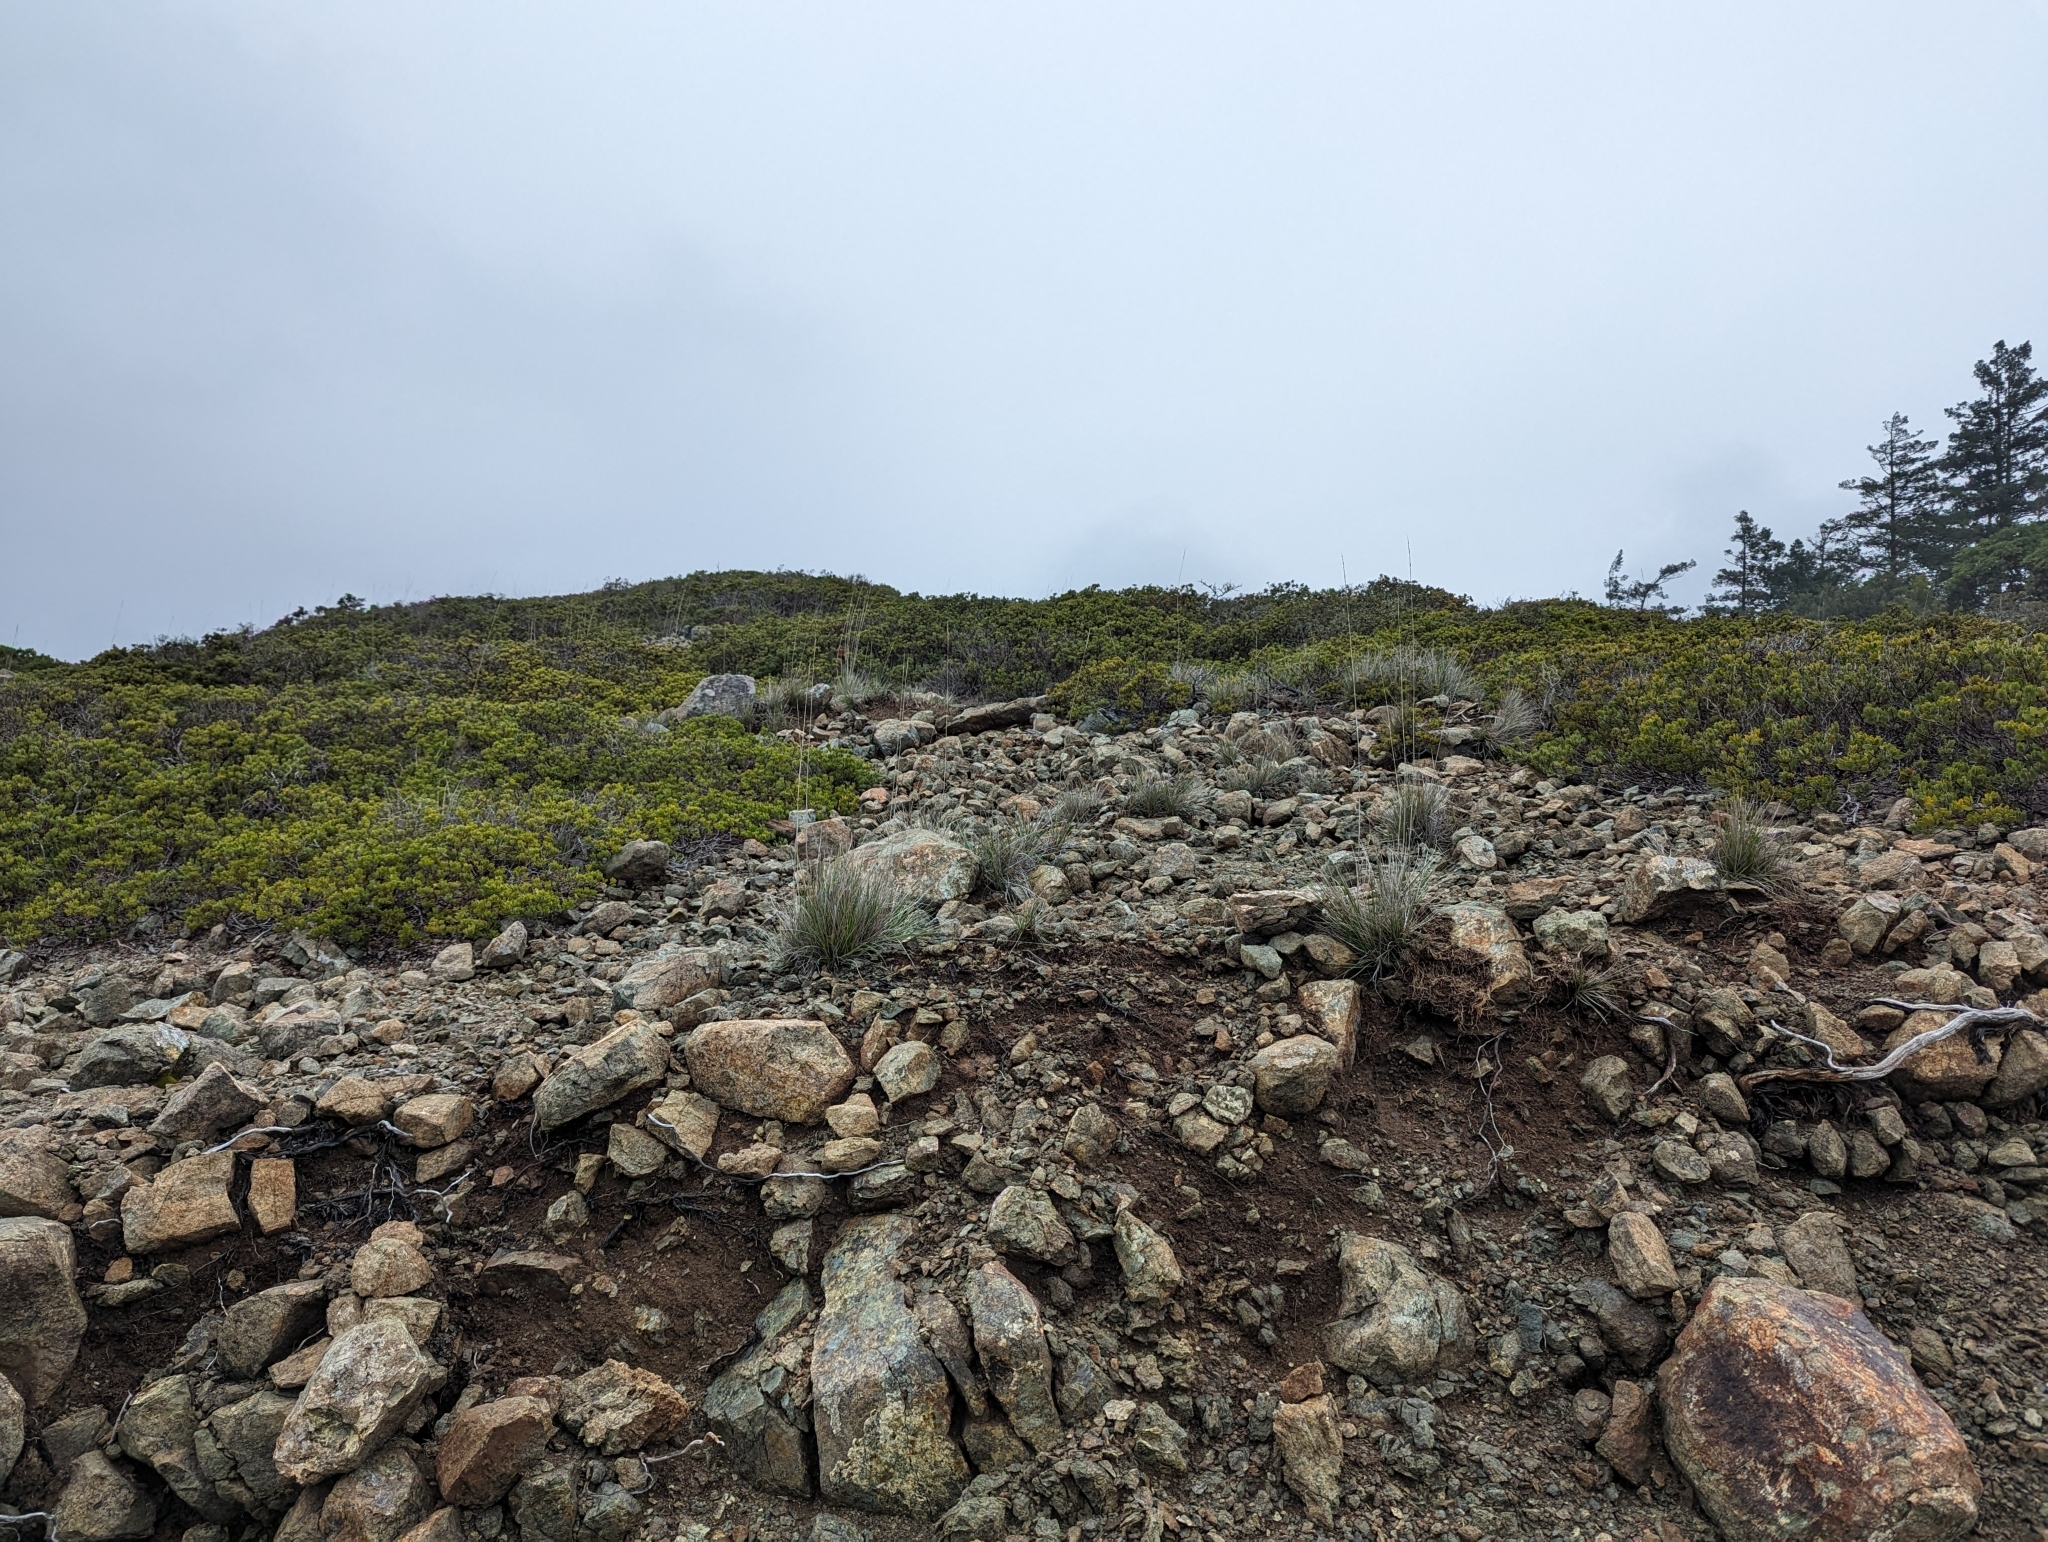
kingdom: Plantae
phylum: Tracheophyta
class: Liliopsida
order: Poales
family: Poaceae
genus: Calamagrostis
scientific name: Calamagrostis ophitidis
